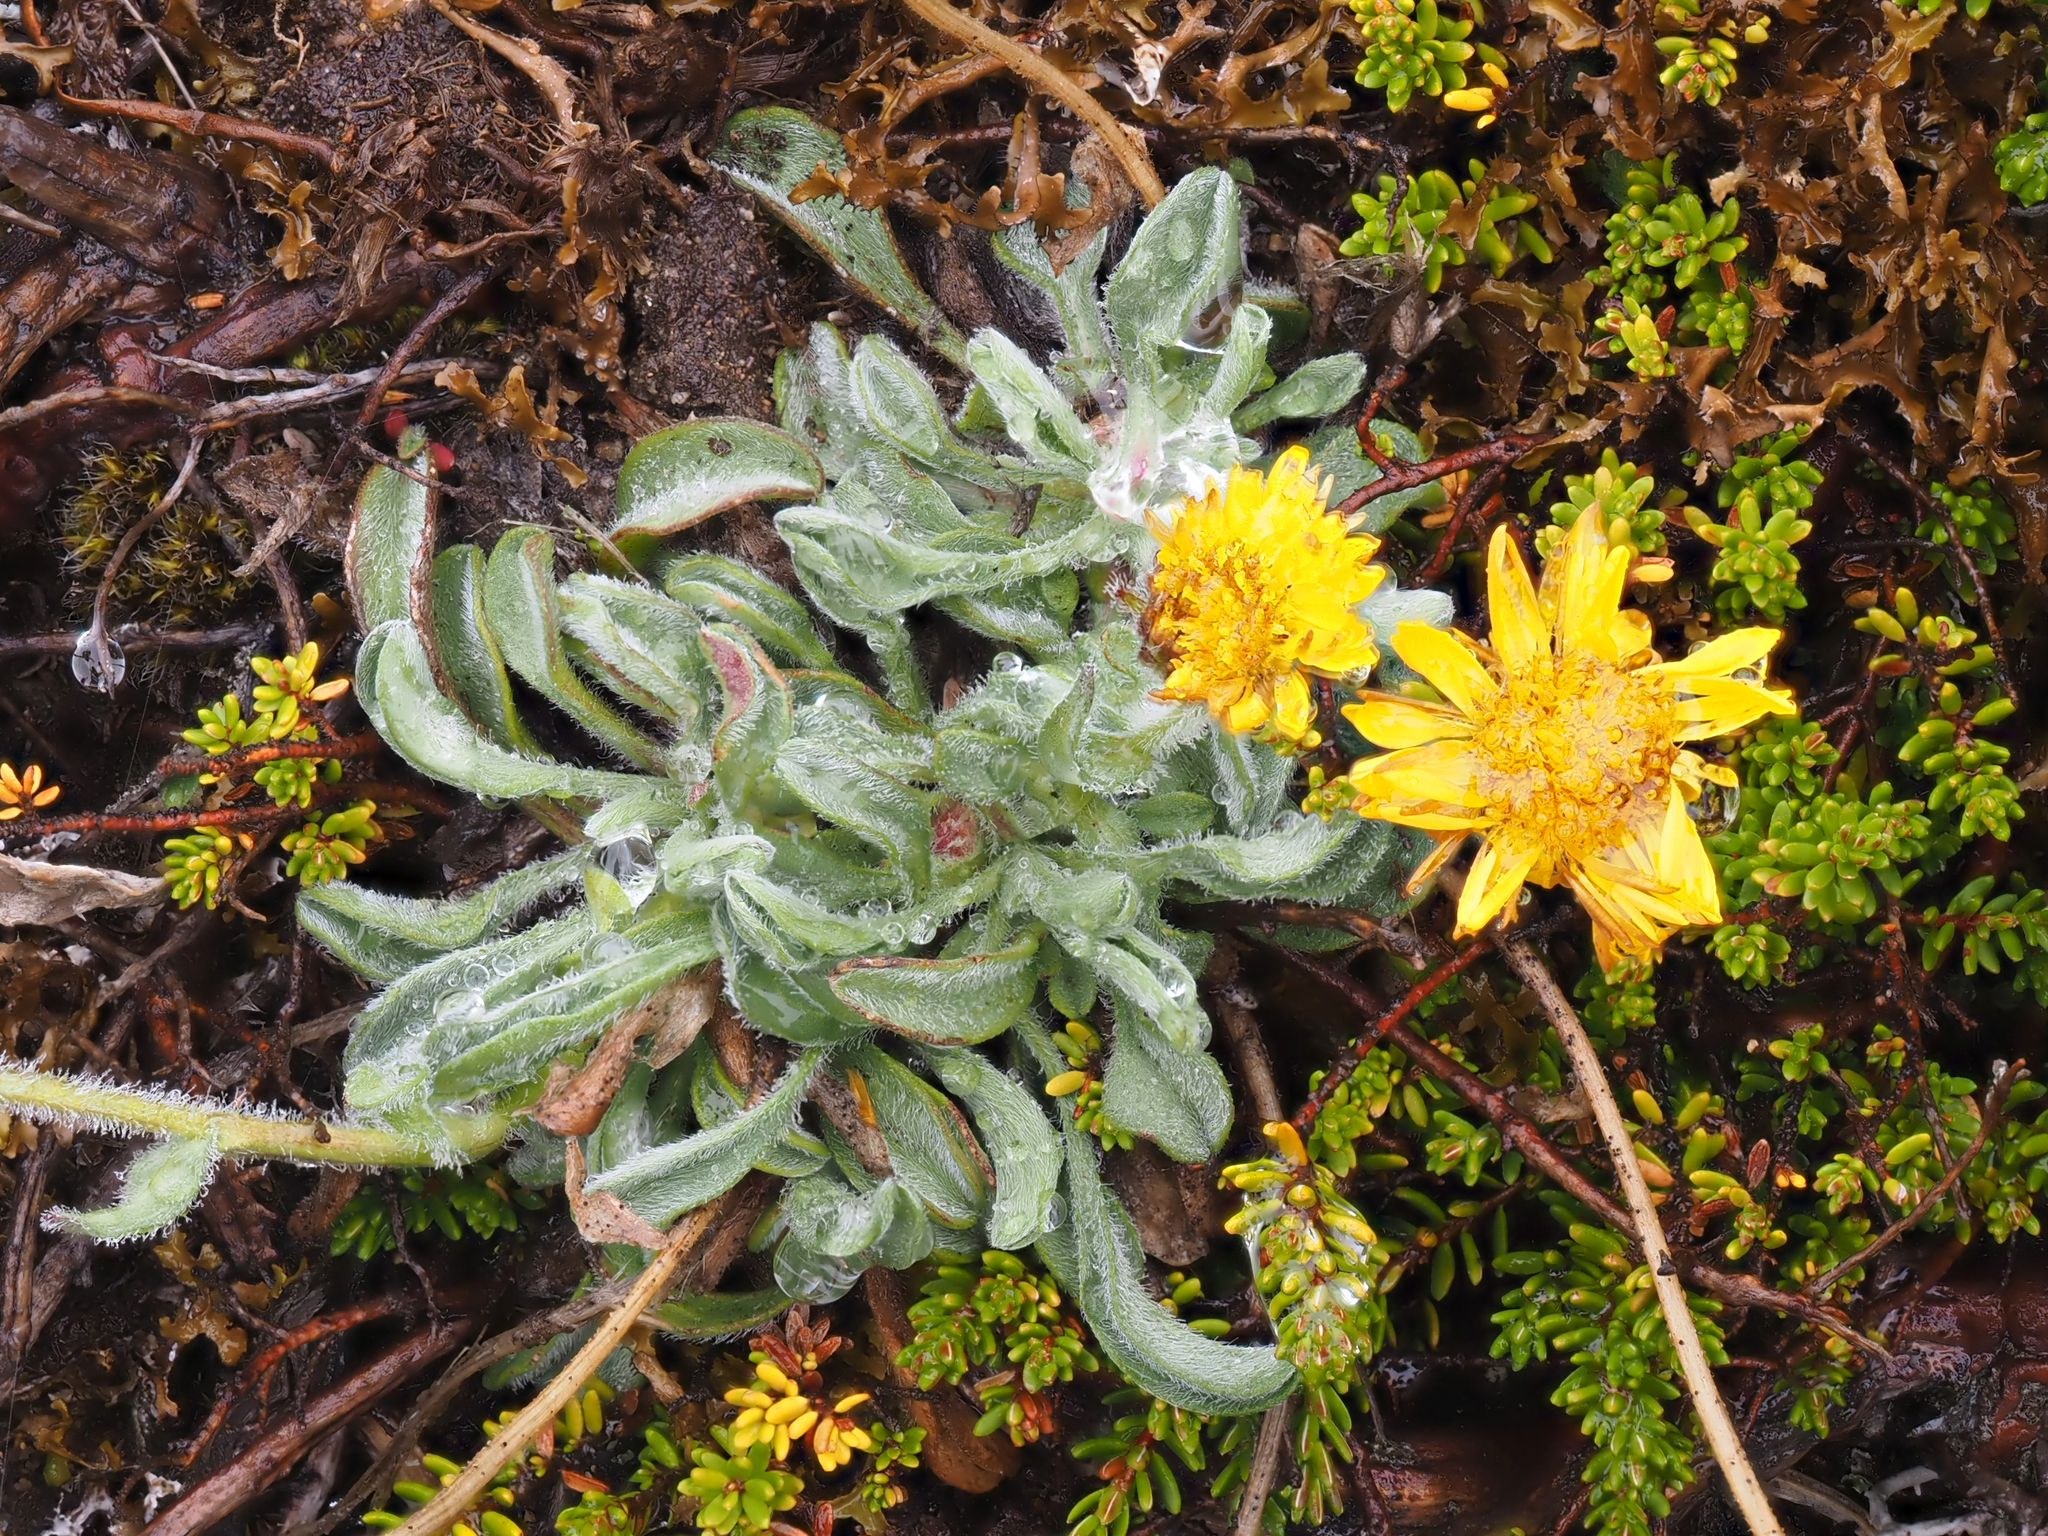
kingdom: Plantae
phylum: Tracheophyta
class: Magnoliopsida
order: Asterales
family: Asteraceae
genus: Erigeron
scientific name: Erigeron aureus
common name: Alpine yellow fleabane
